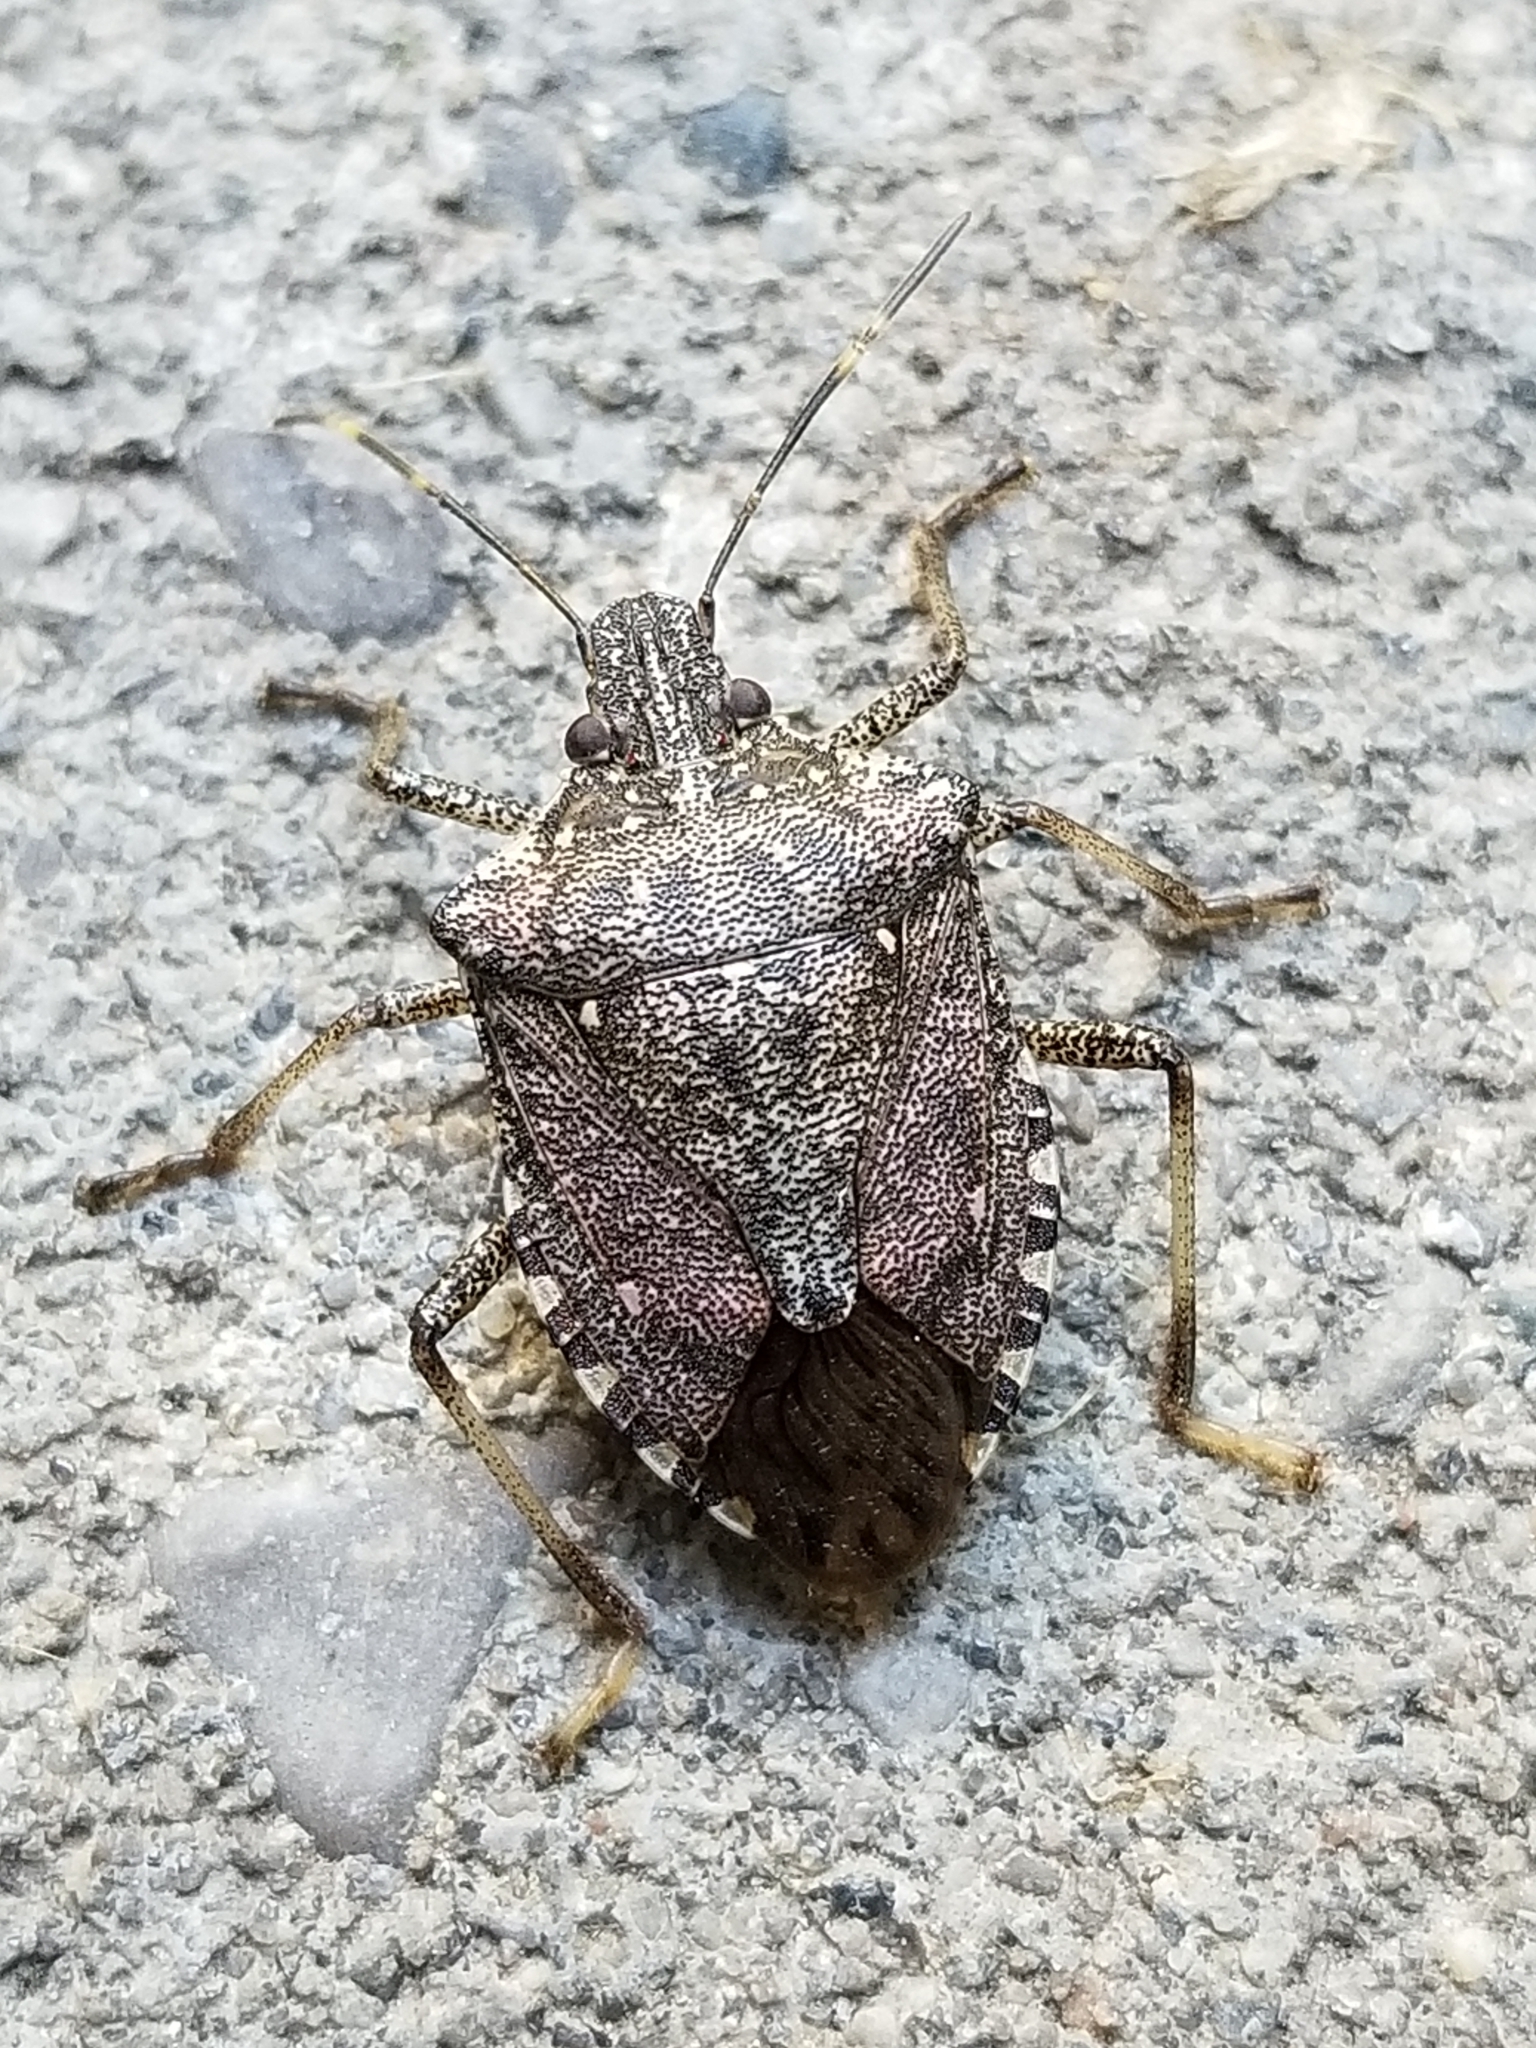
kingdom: Animalia
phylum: Arthropoda
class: Insecta
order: Hemiptera
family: Pentatomidae
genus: Halyomorpha
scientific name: Halyomorpha halys
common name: Brown marmorated stink bug
